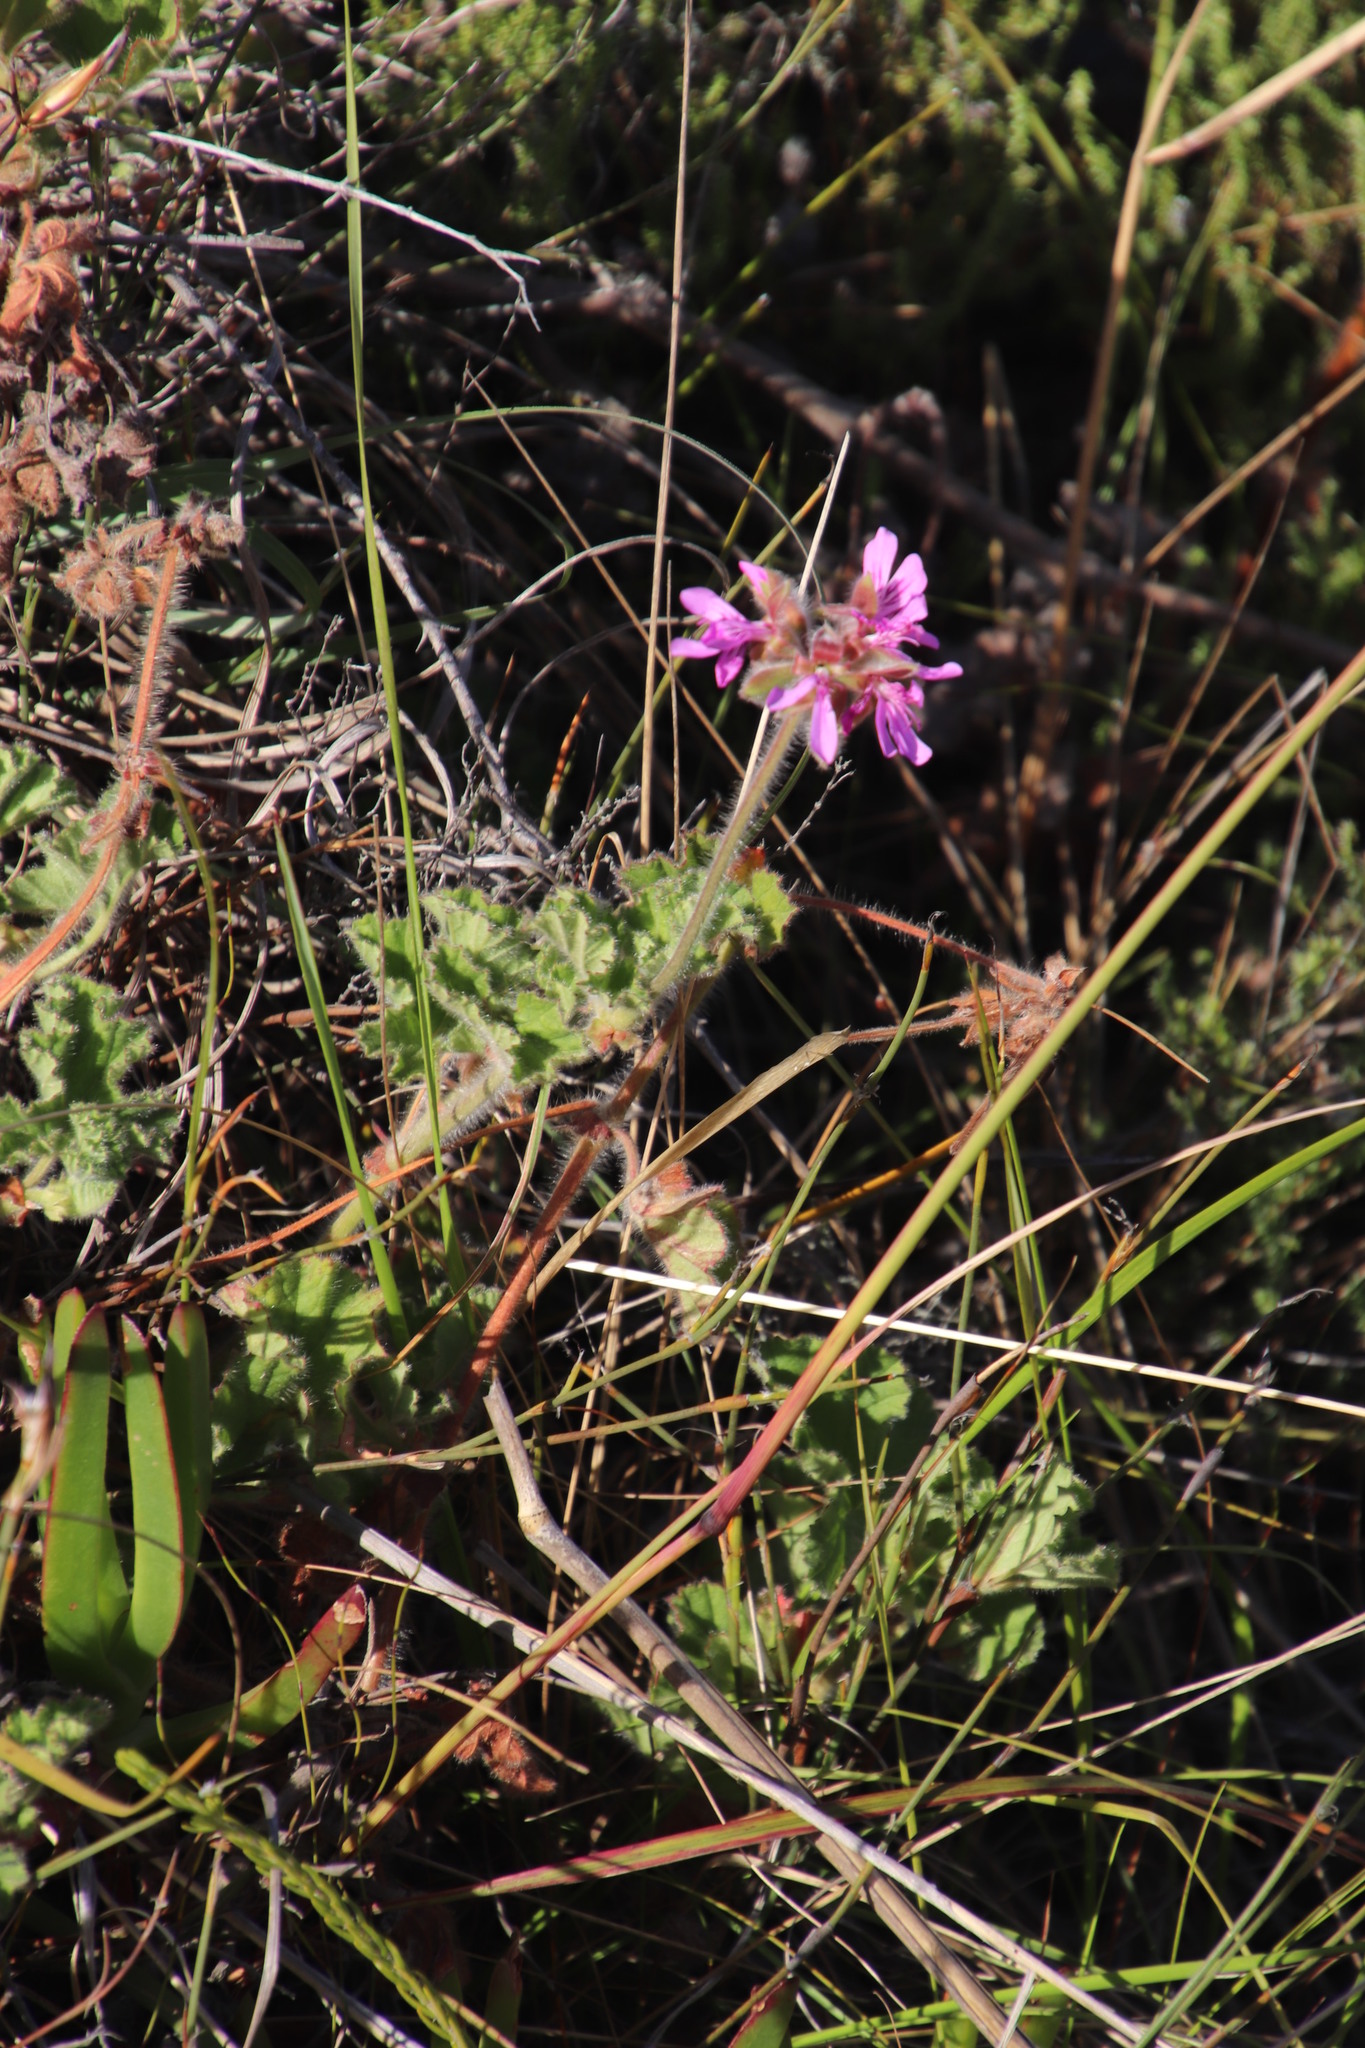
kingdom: Plantae
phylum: Tracheophyta
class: Magnoliopsida
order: Geraniales
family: Geraniaceae
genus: Pelargonium
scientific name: Pelargonium capitatum
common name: Rose scented geranium
